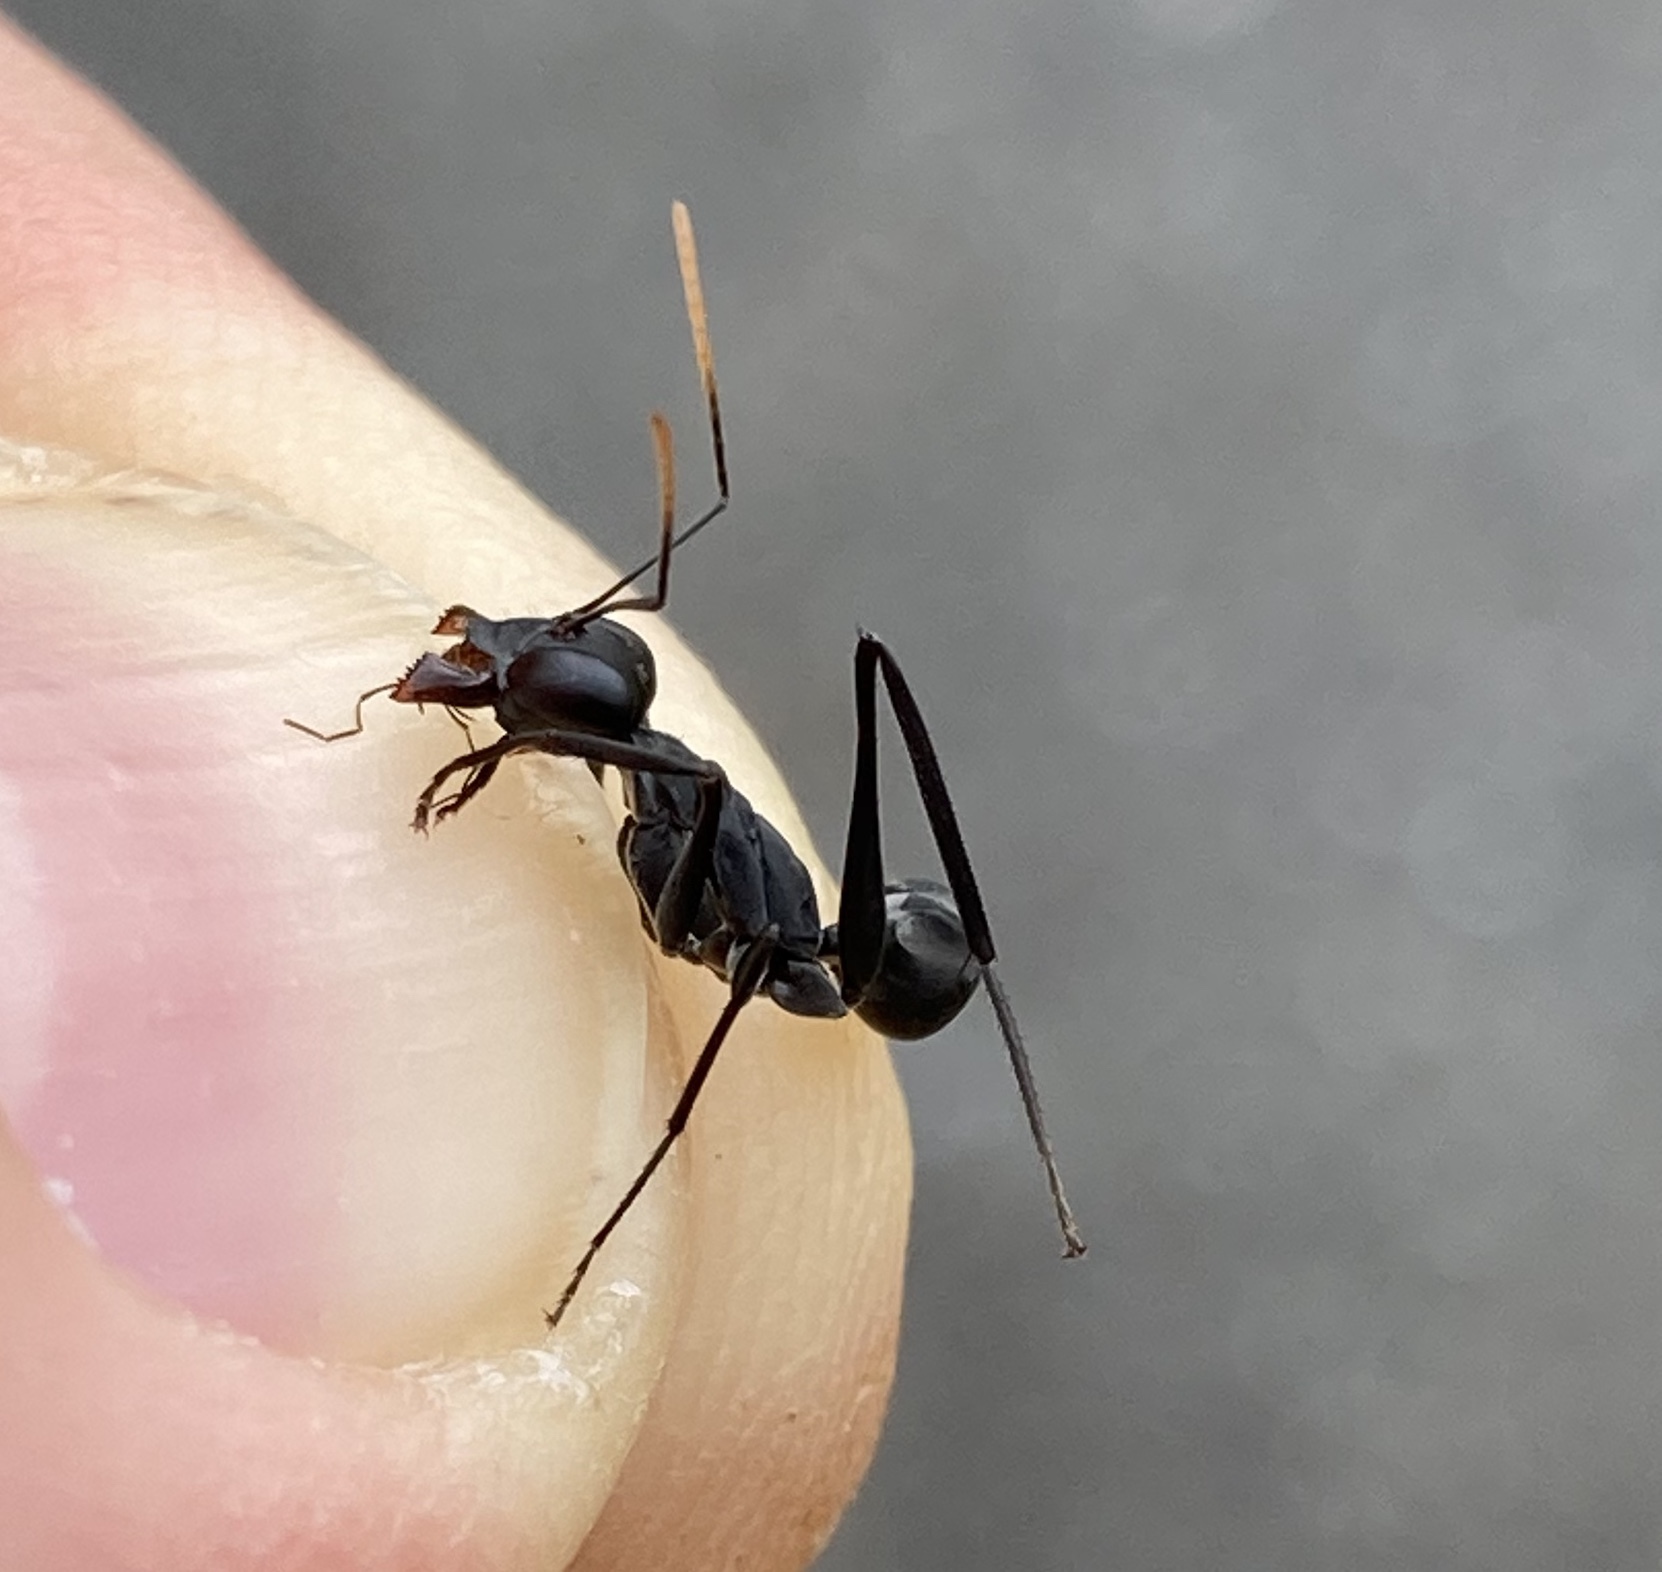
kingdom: Animalia
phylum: Arthropoda
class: Insecta
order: Hymenoptera
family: Formicidae
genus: Gigantiops
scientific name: Gigantiops destructor
